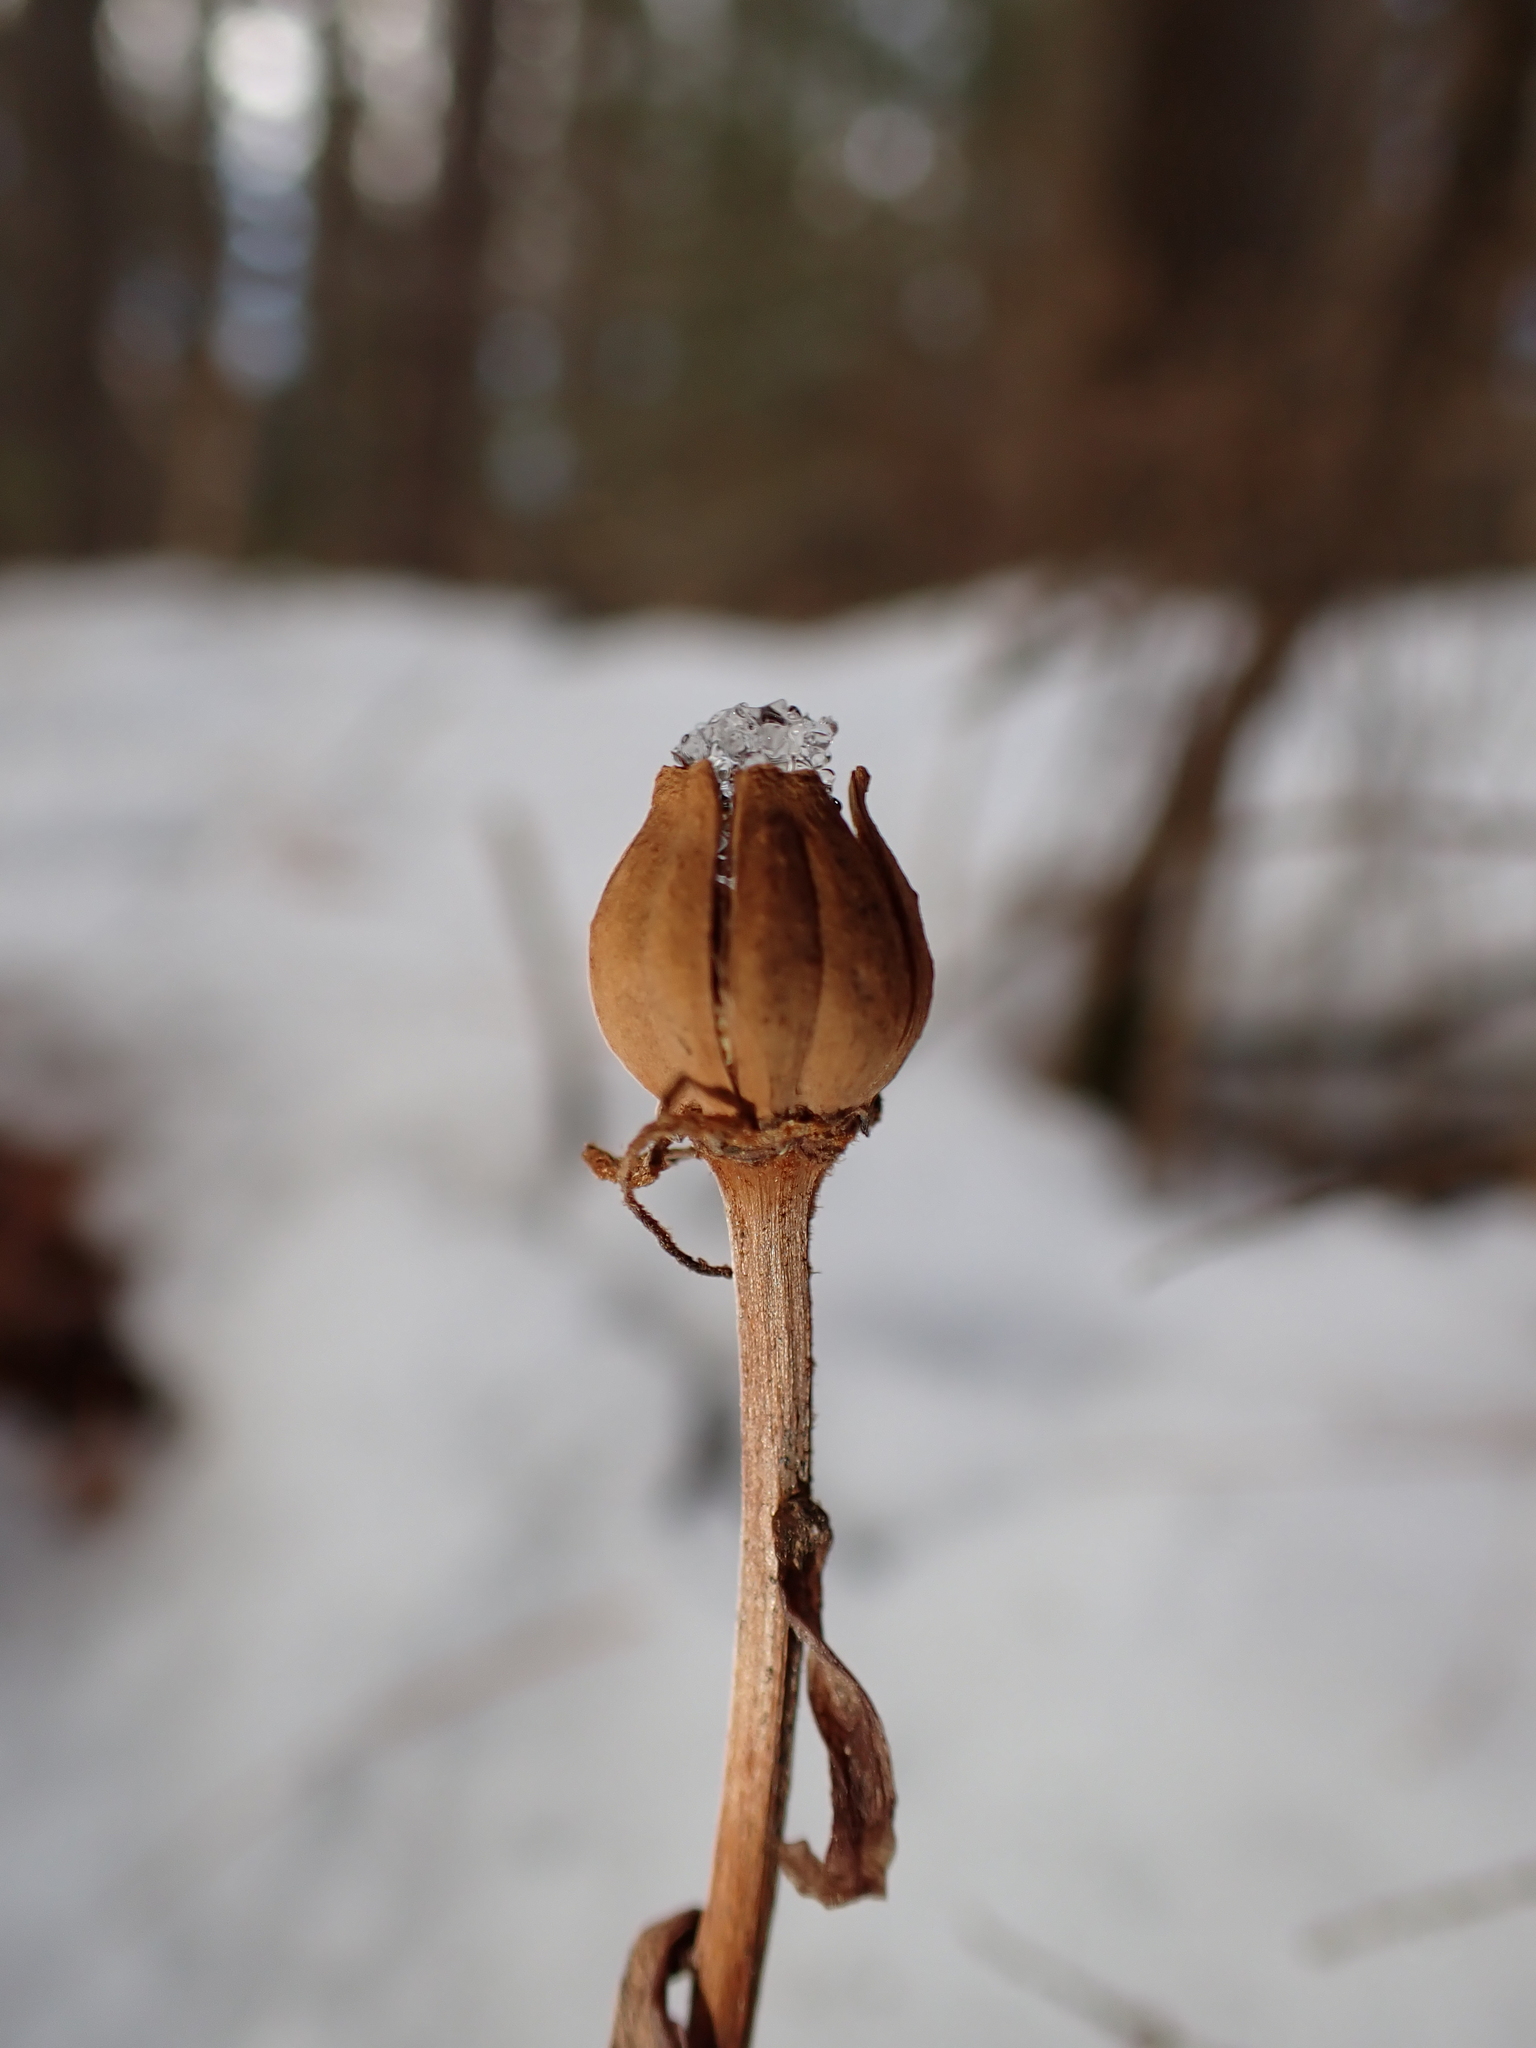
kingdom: Plantae
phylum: Tracheophyta
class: Magnoliopsida
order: Ericales
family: Ericaceae
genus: Monotropa
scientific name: Monotropa uniflora
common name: Convulsion root
